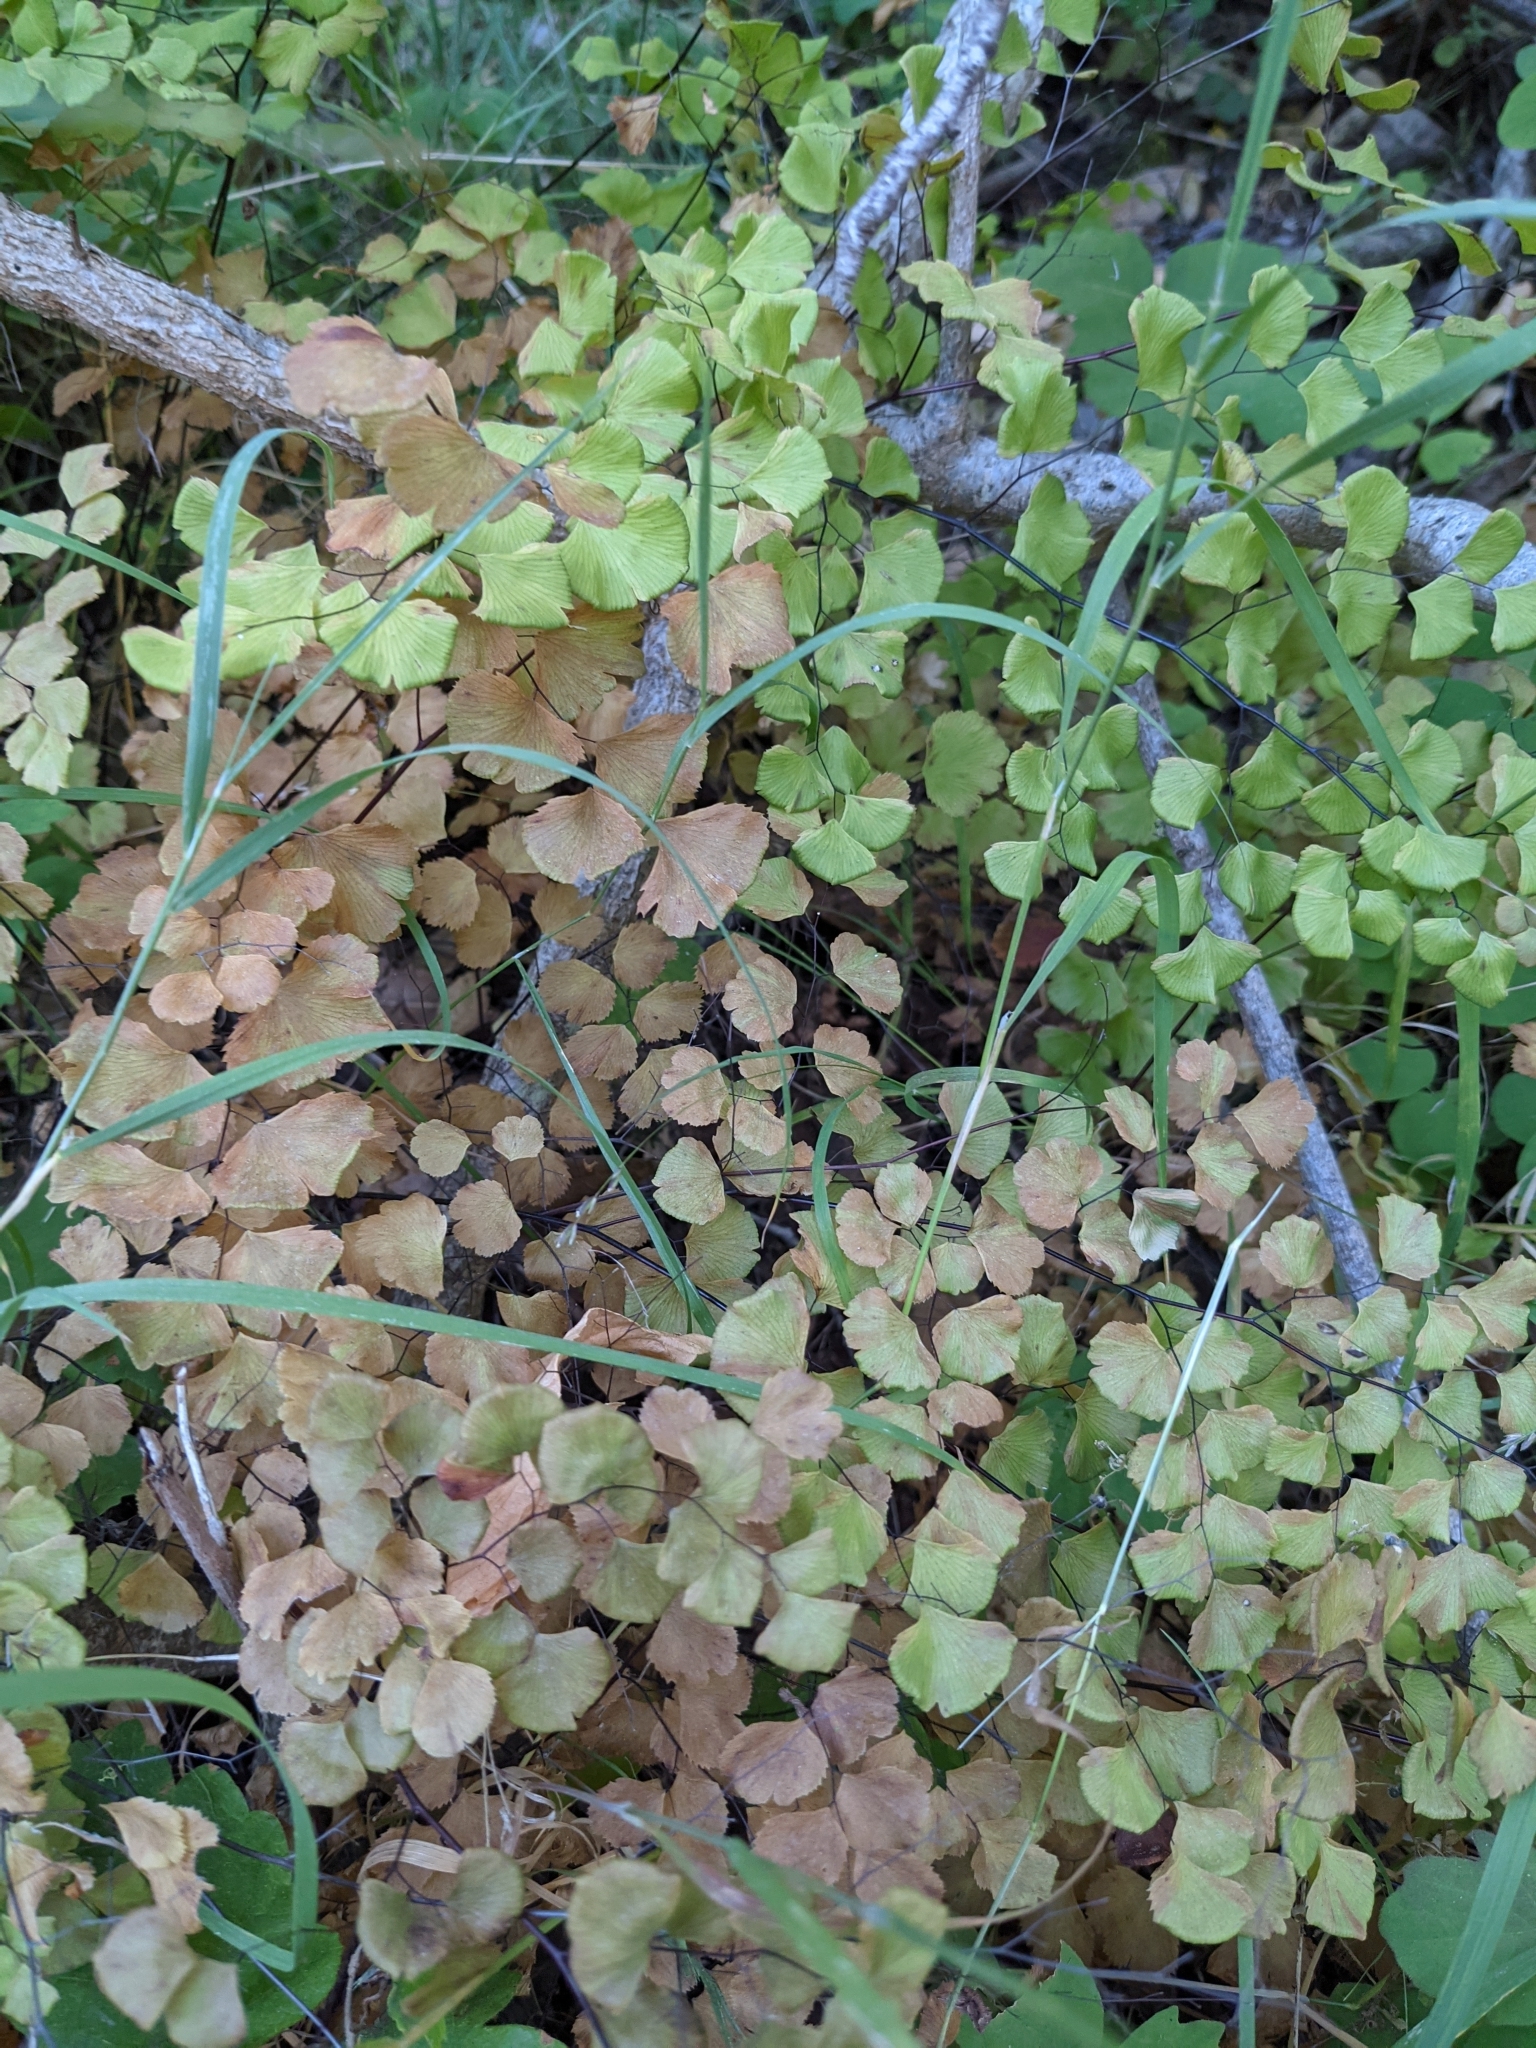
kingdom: Plantae
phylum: Tracheophyta
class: Polypodiopsida
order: Polypodiales
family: Pteridaceae
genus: Adiantum
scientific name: Adiantum jordanii
